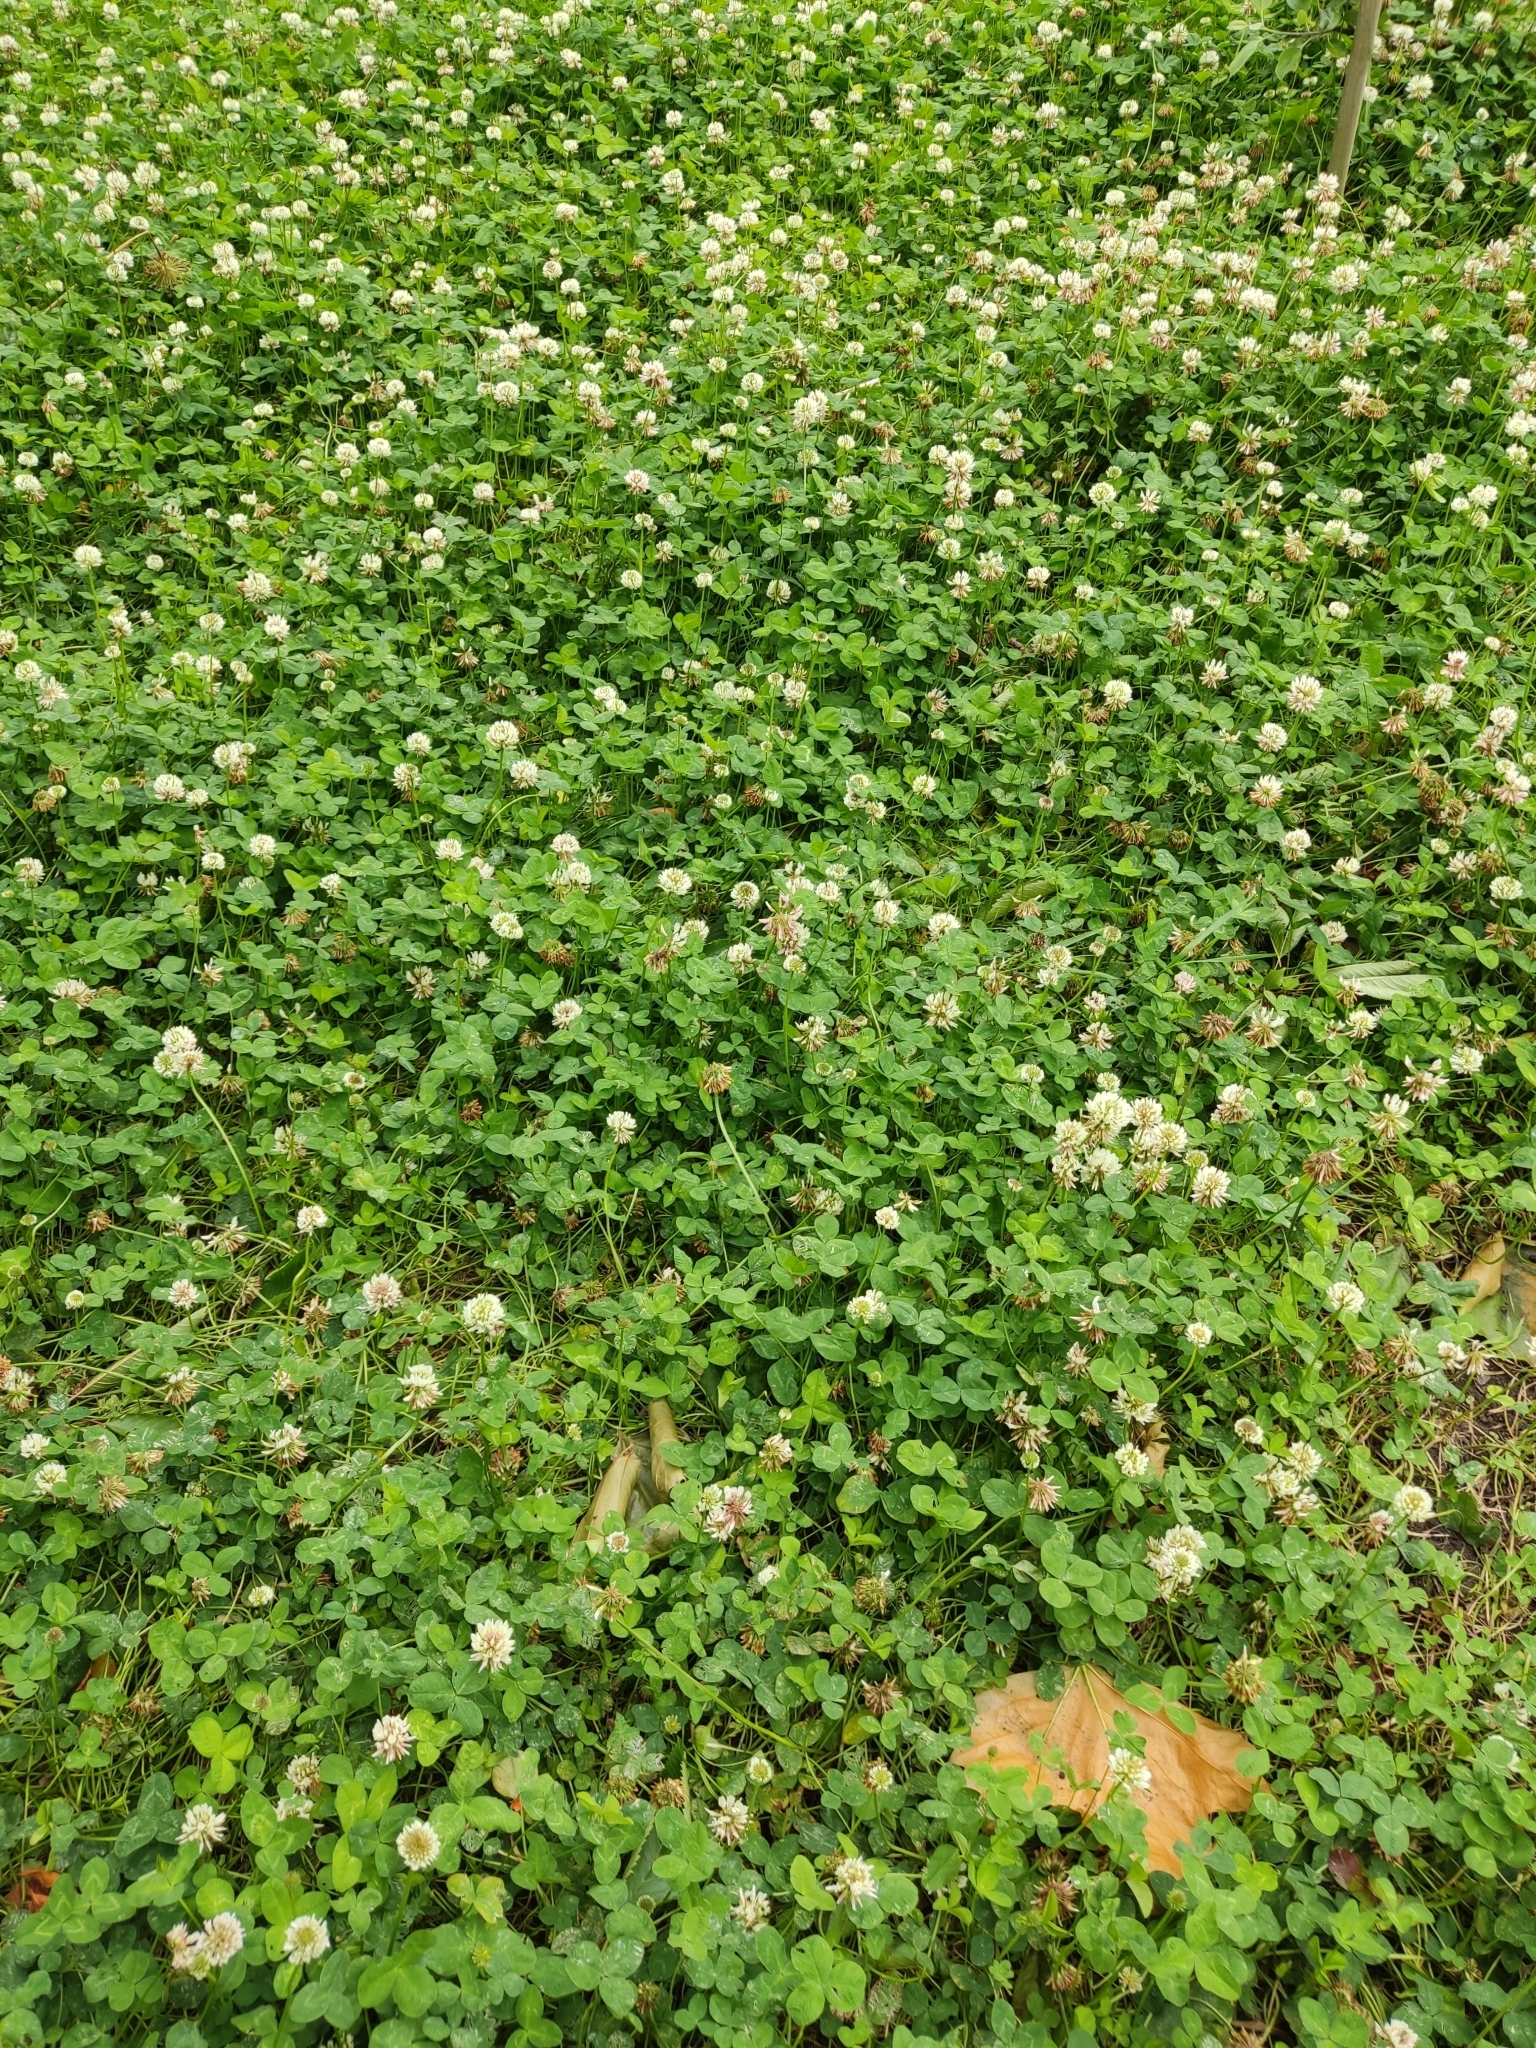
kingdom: Plantae
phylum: Tracheophyta
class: Magnoliopsida
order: Fabales
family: Fabaceae
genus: Trifolium
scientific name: Trifolium repens
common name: White clover
